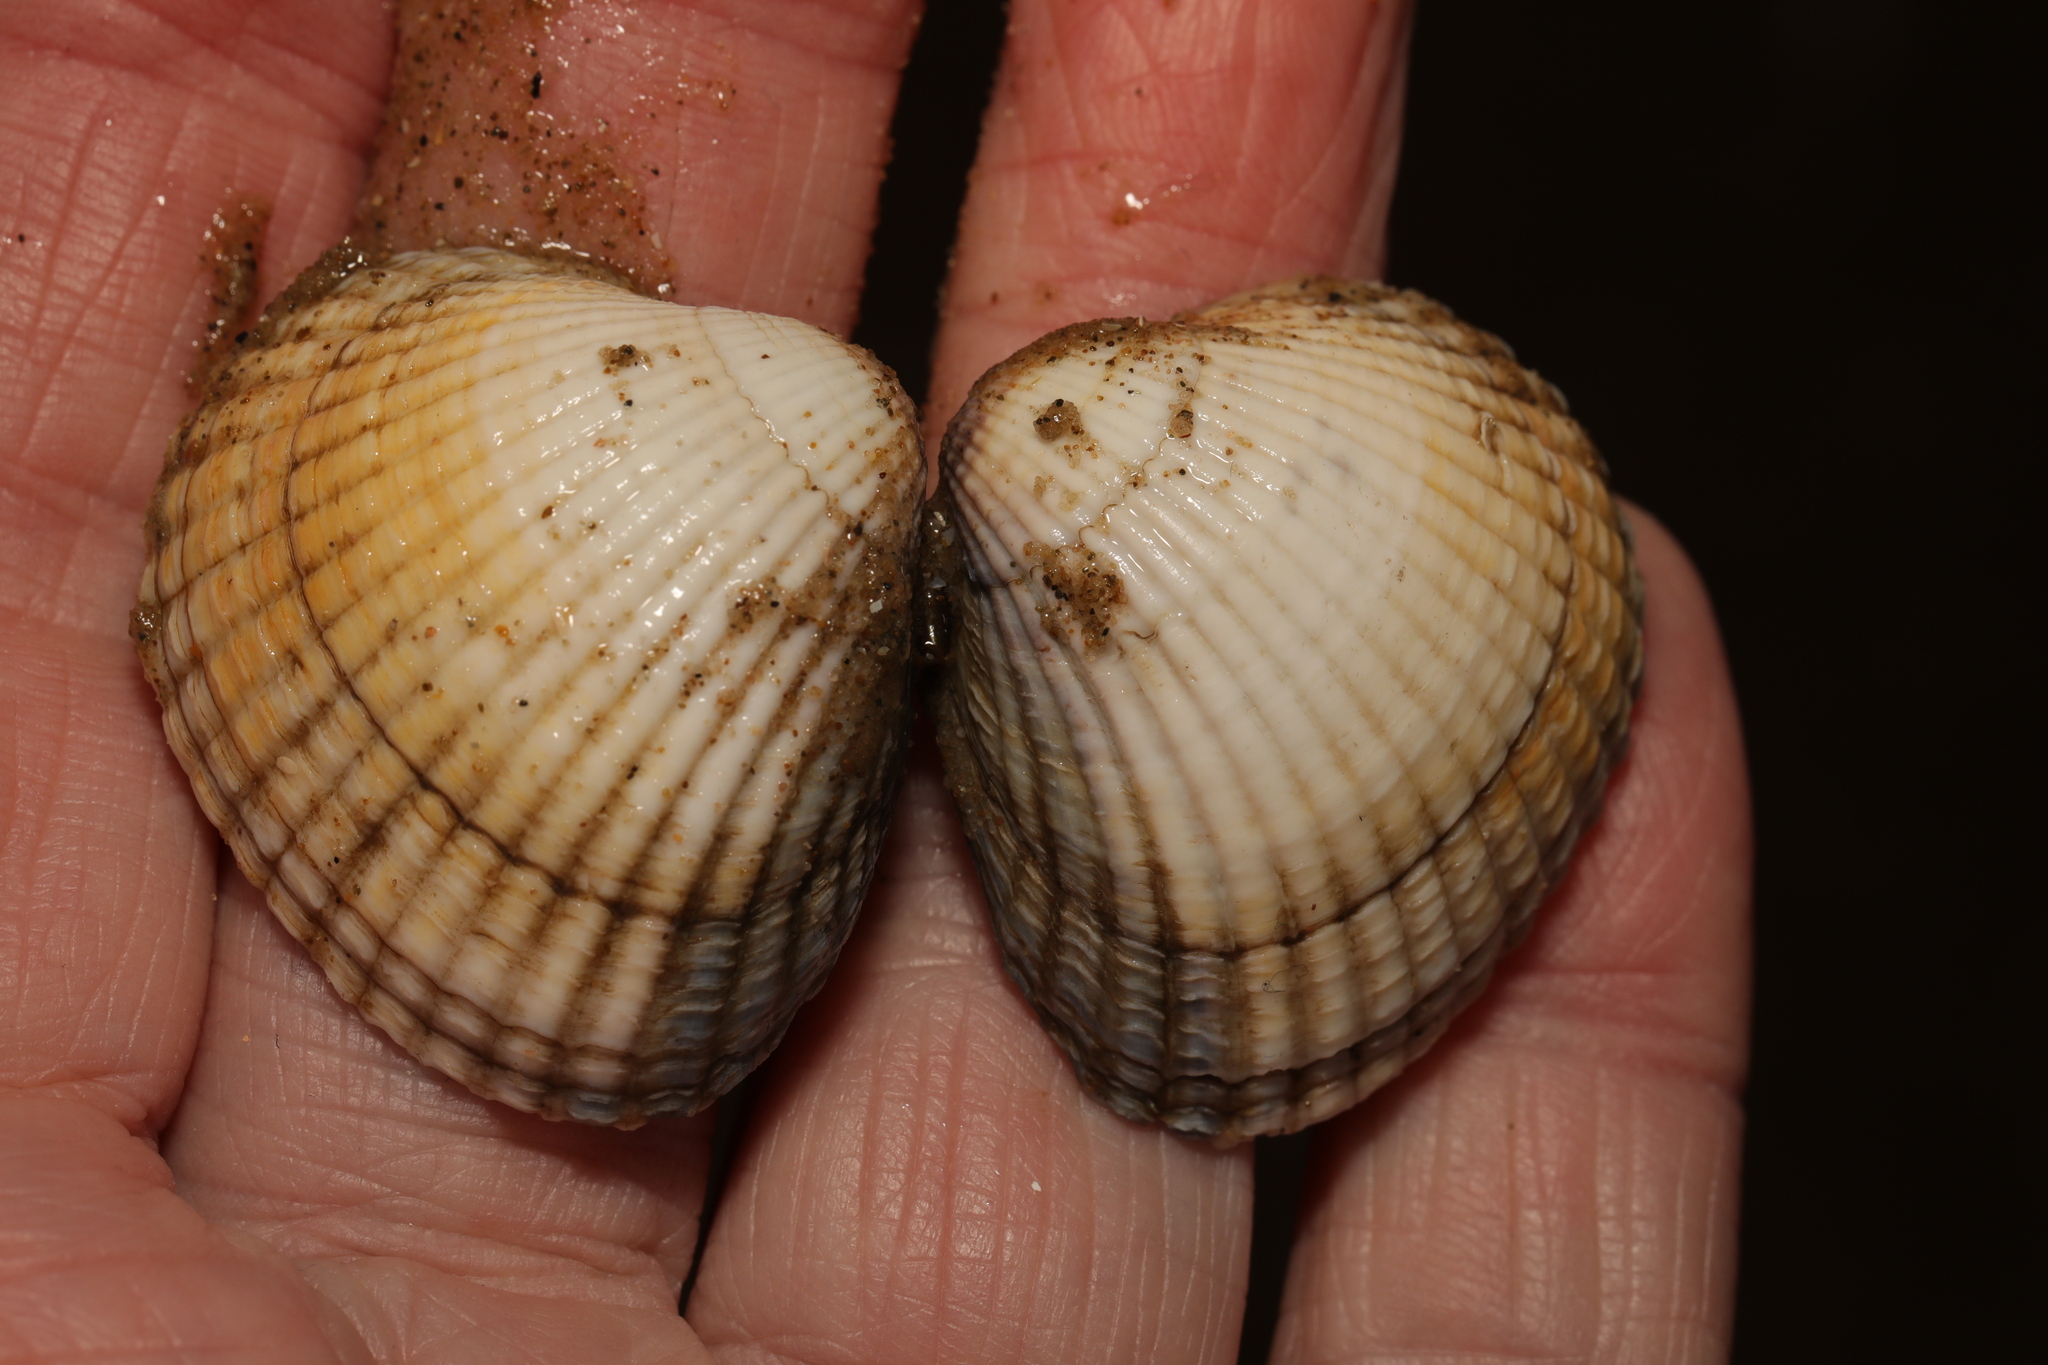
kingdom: Animalia
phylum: Mollusca
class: Bivalvia
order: Cardiida
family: Cardiidae
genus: Cerastoderma
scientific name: Cerastoderma edule
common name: Common cockle
